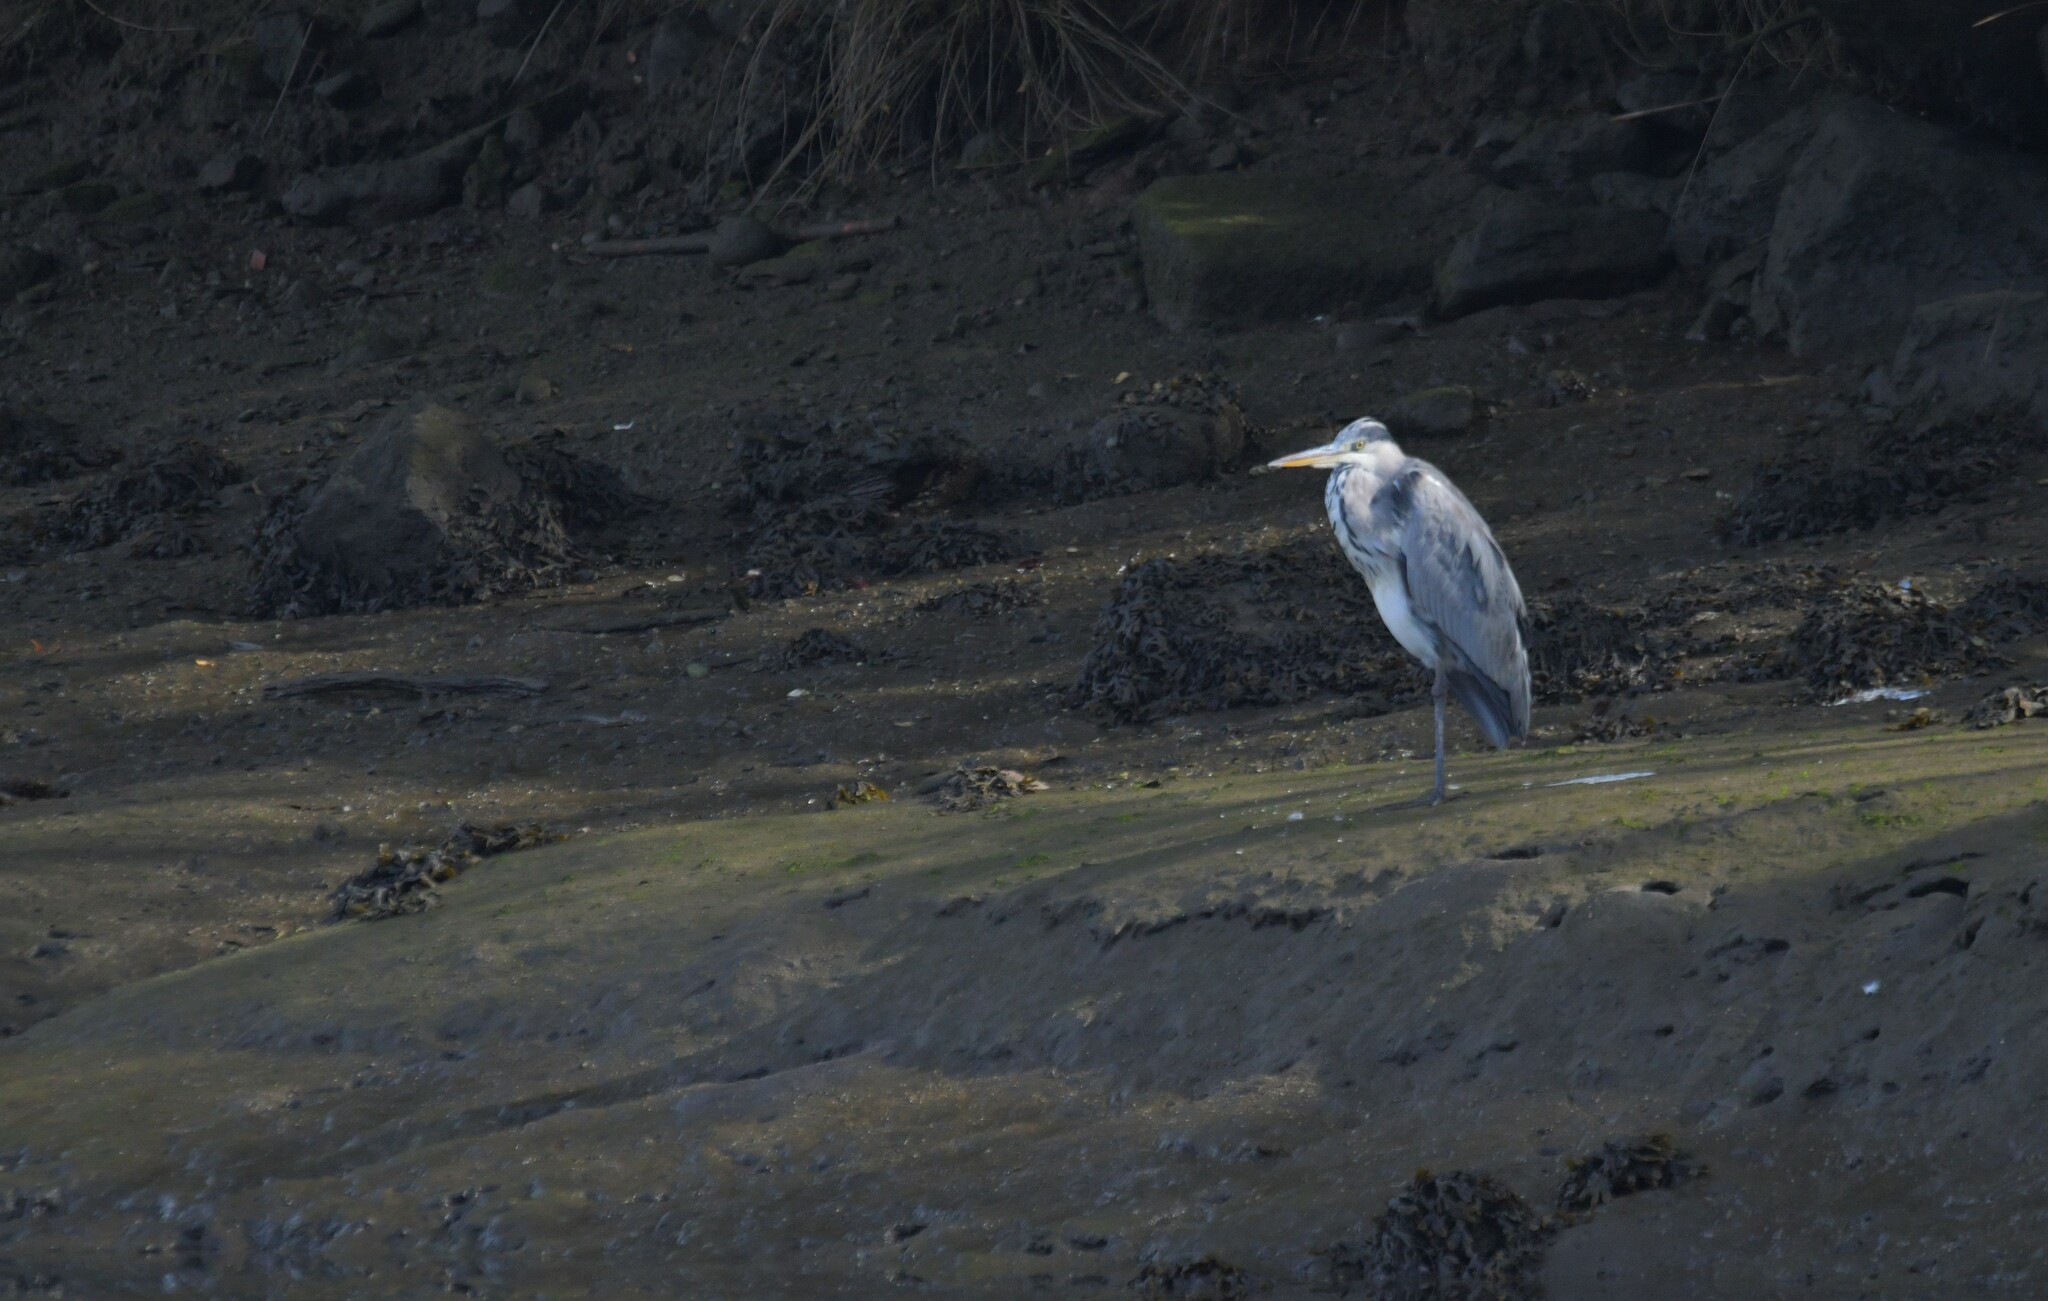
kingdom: Animalia
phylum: Chordata
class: Aves
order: Pelecaniformes
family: Ardeidae
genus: Ardea
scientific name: Ardea cinerea
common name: Grey heron
